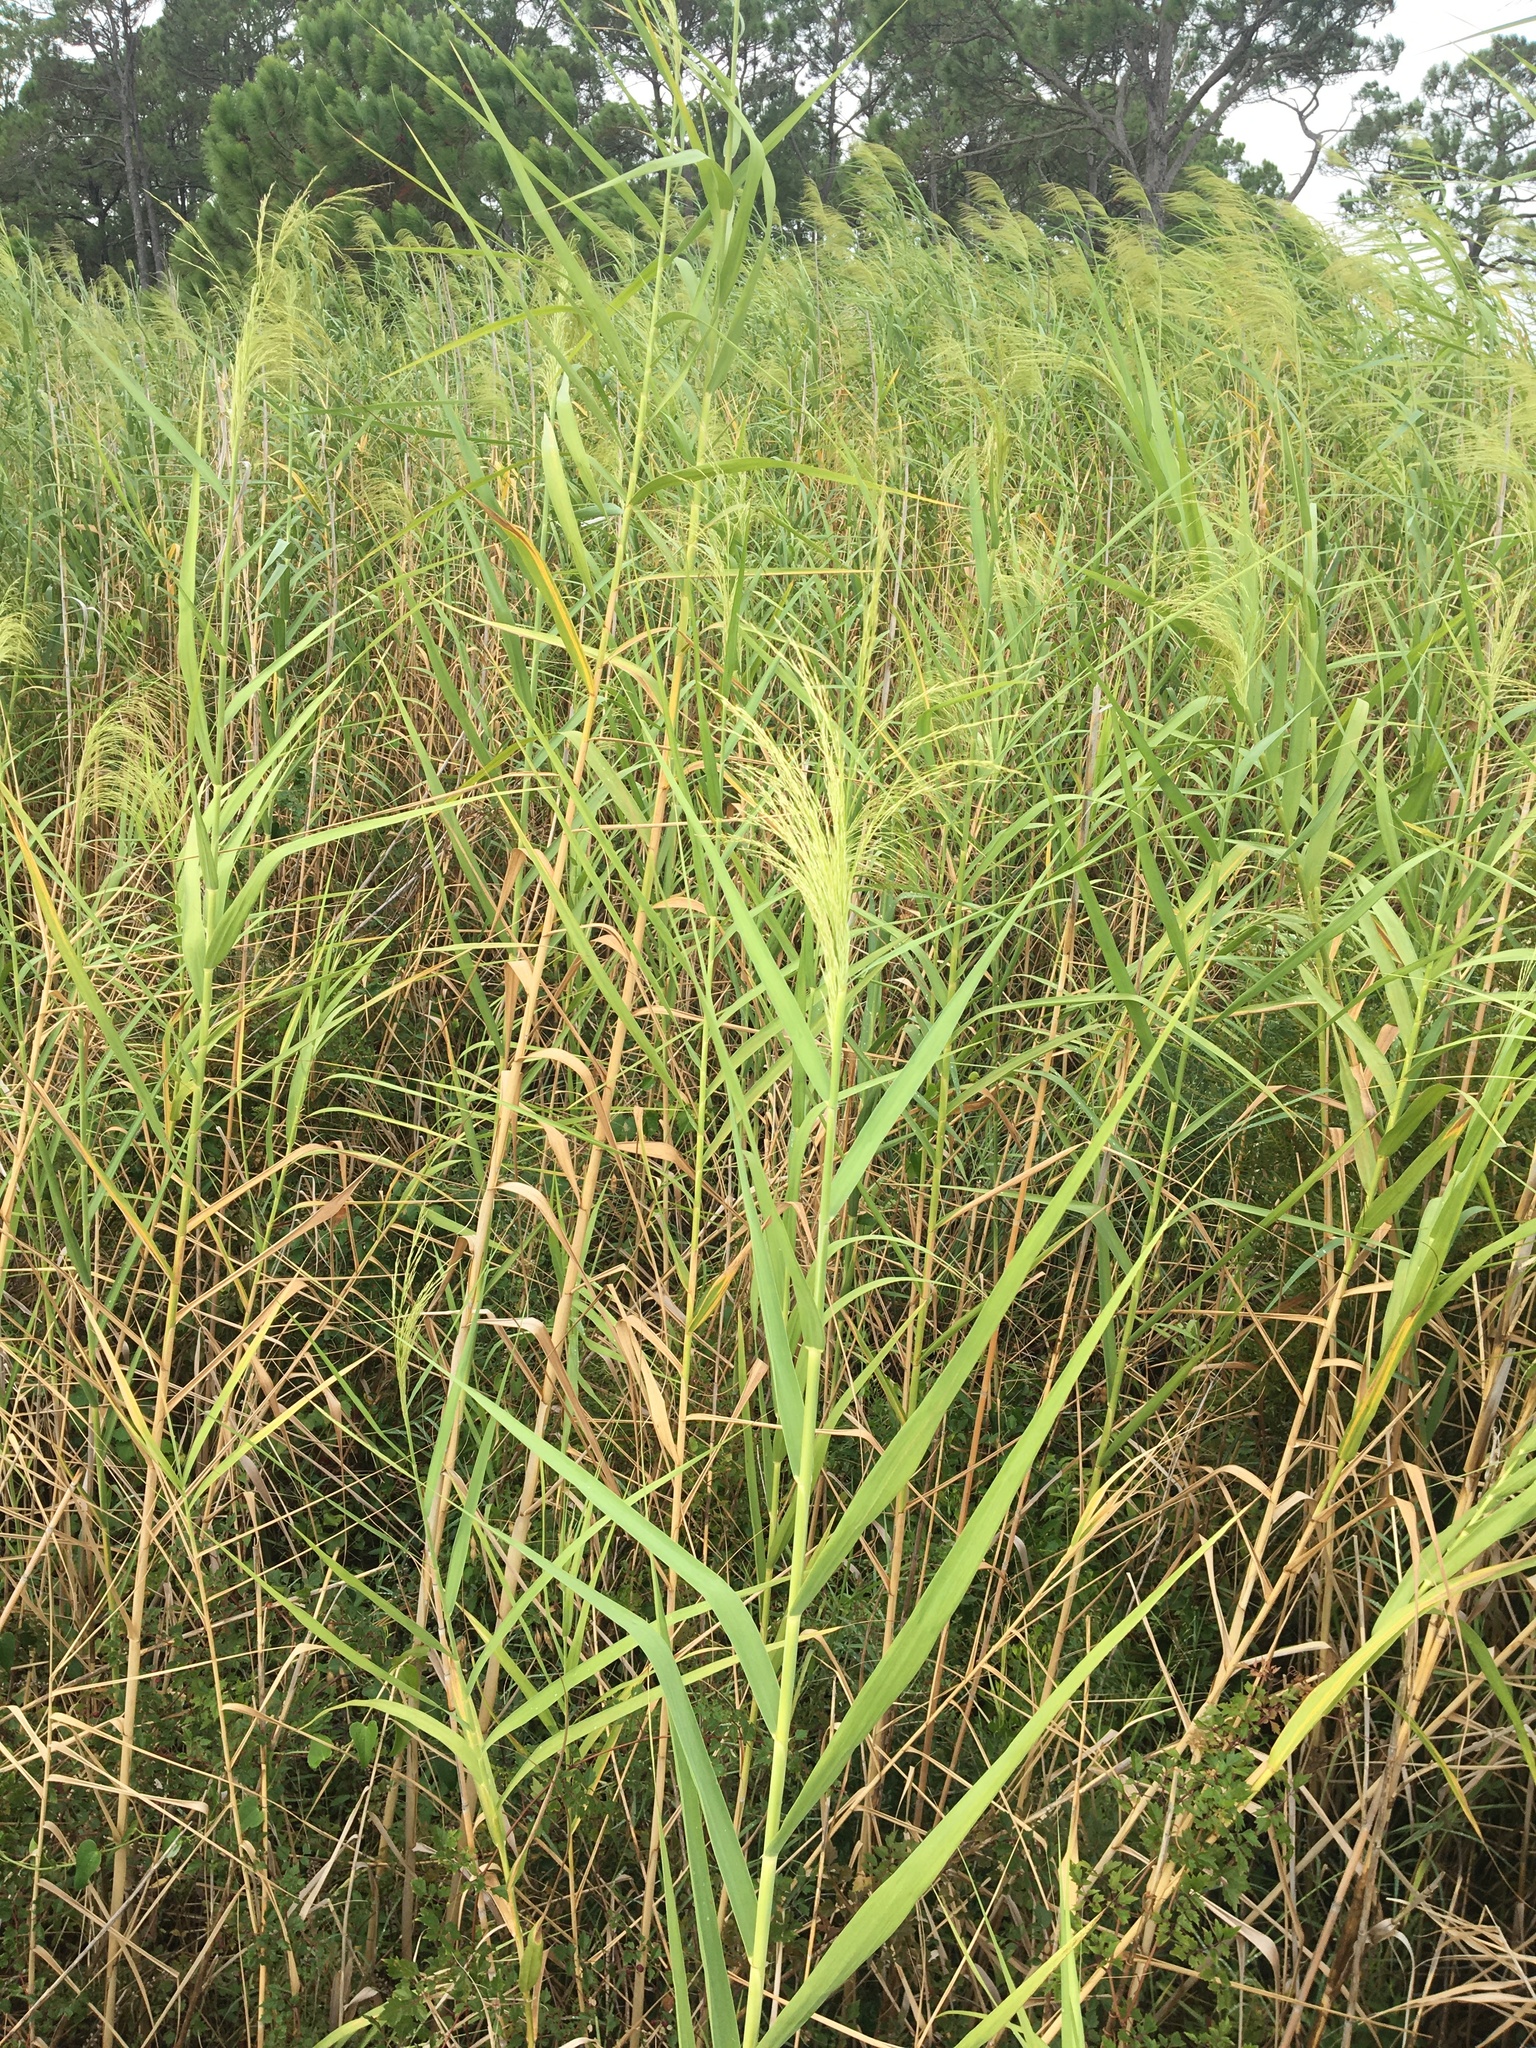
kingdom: Plantae
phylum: Tracheophyta
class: Liliopsida
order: Poales
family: Poaceae
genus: Phragmites
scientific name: Phragmites australis
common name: Common reed
